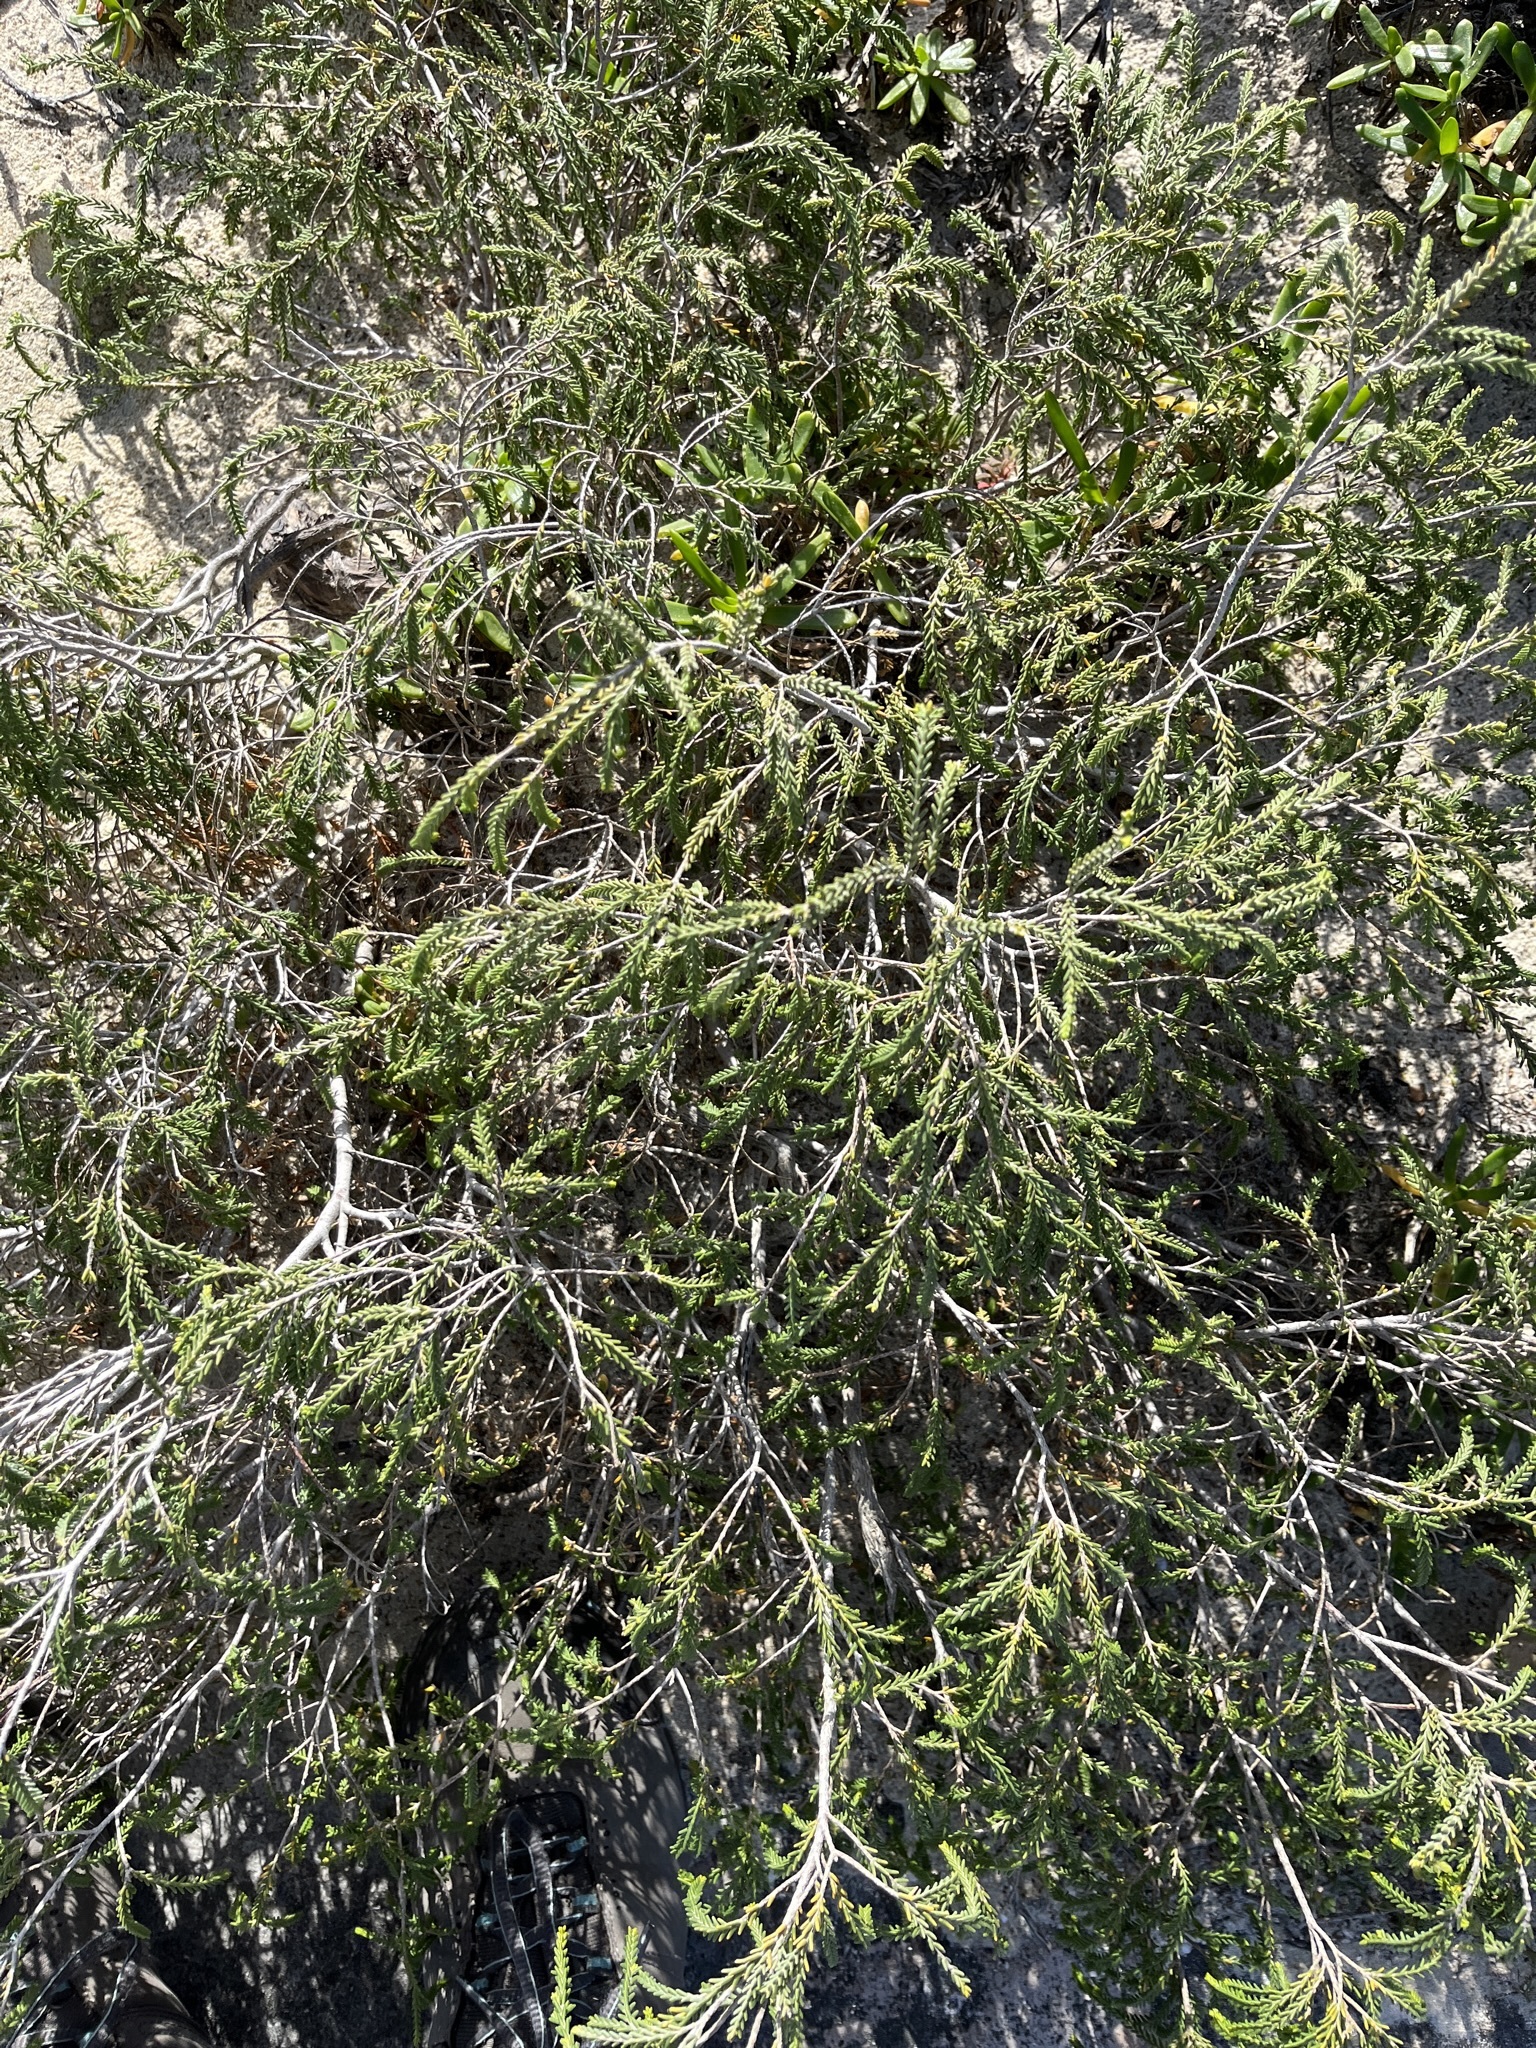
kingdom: Plantae
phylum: Tracheophyta
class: Magnoliopsida
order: Malvales
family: Thymelaeaceae
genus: Passerina
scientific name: Passerina ericoides
